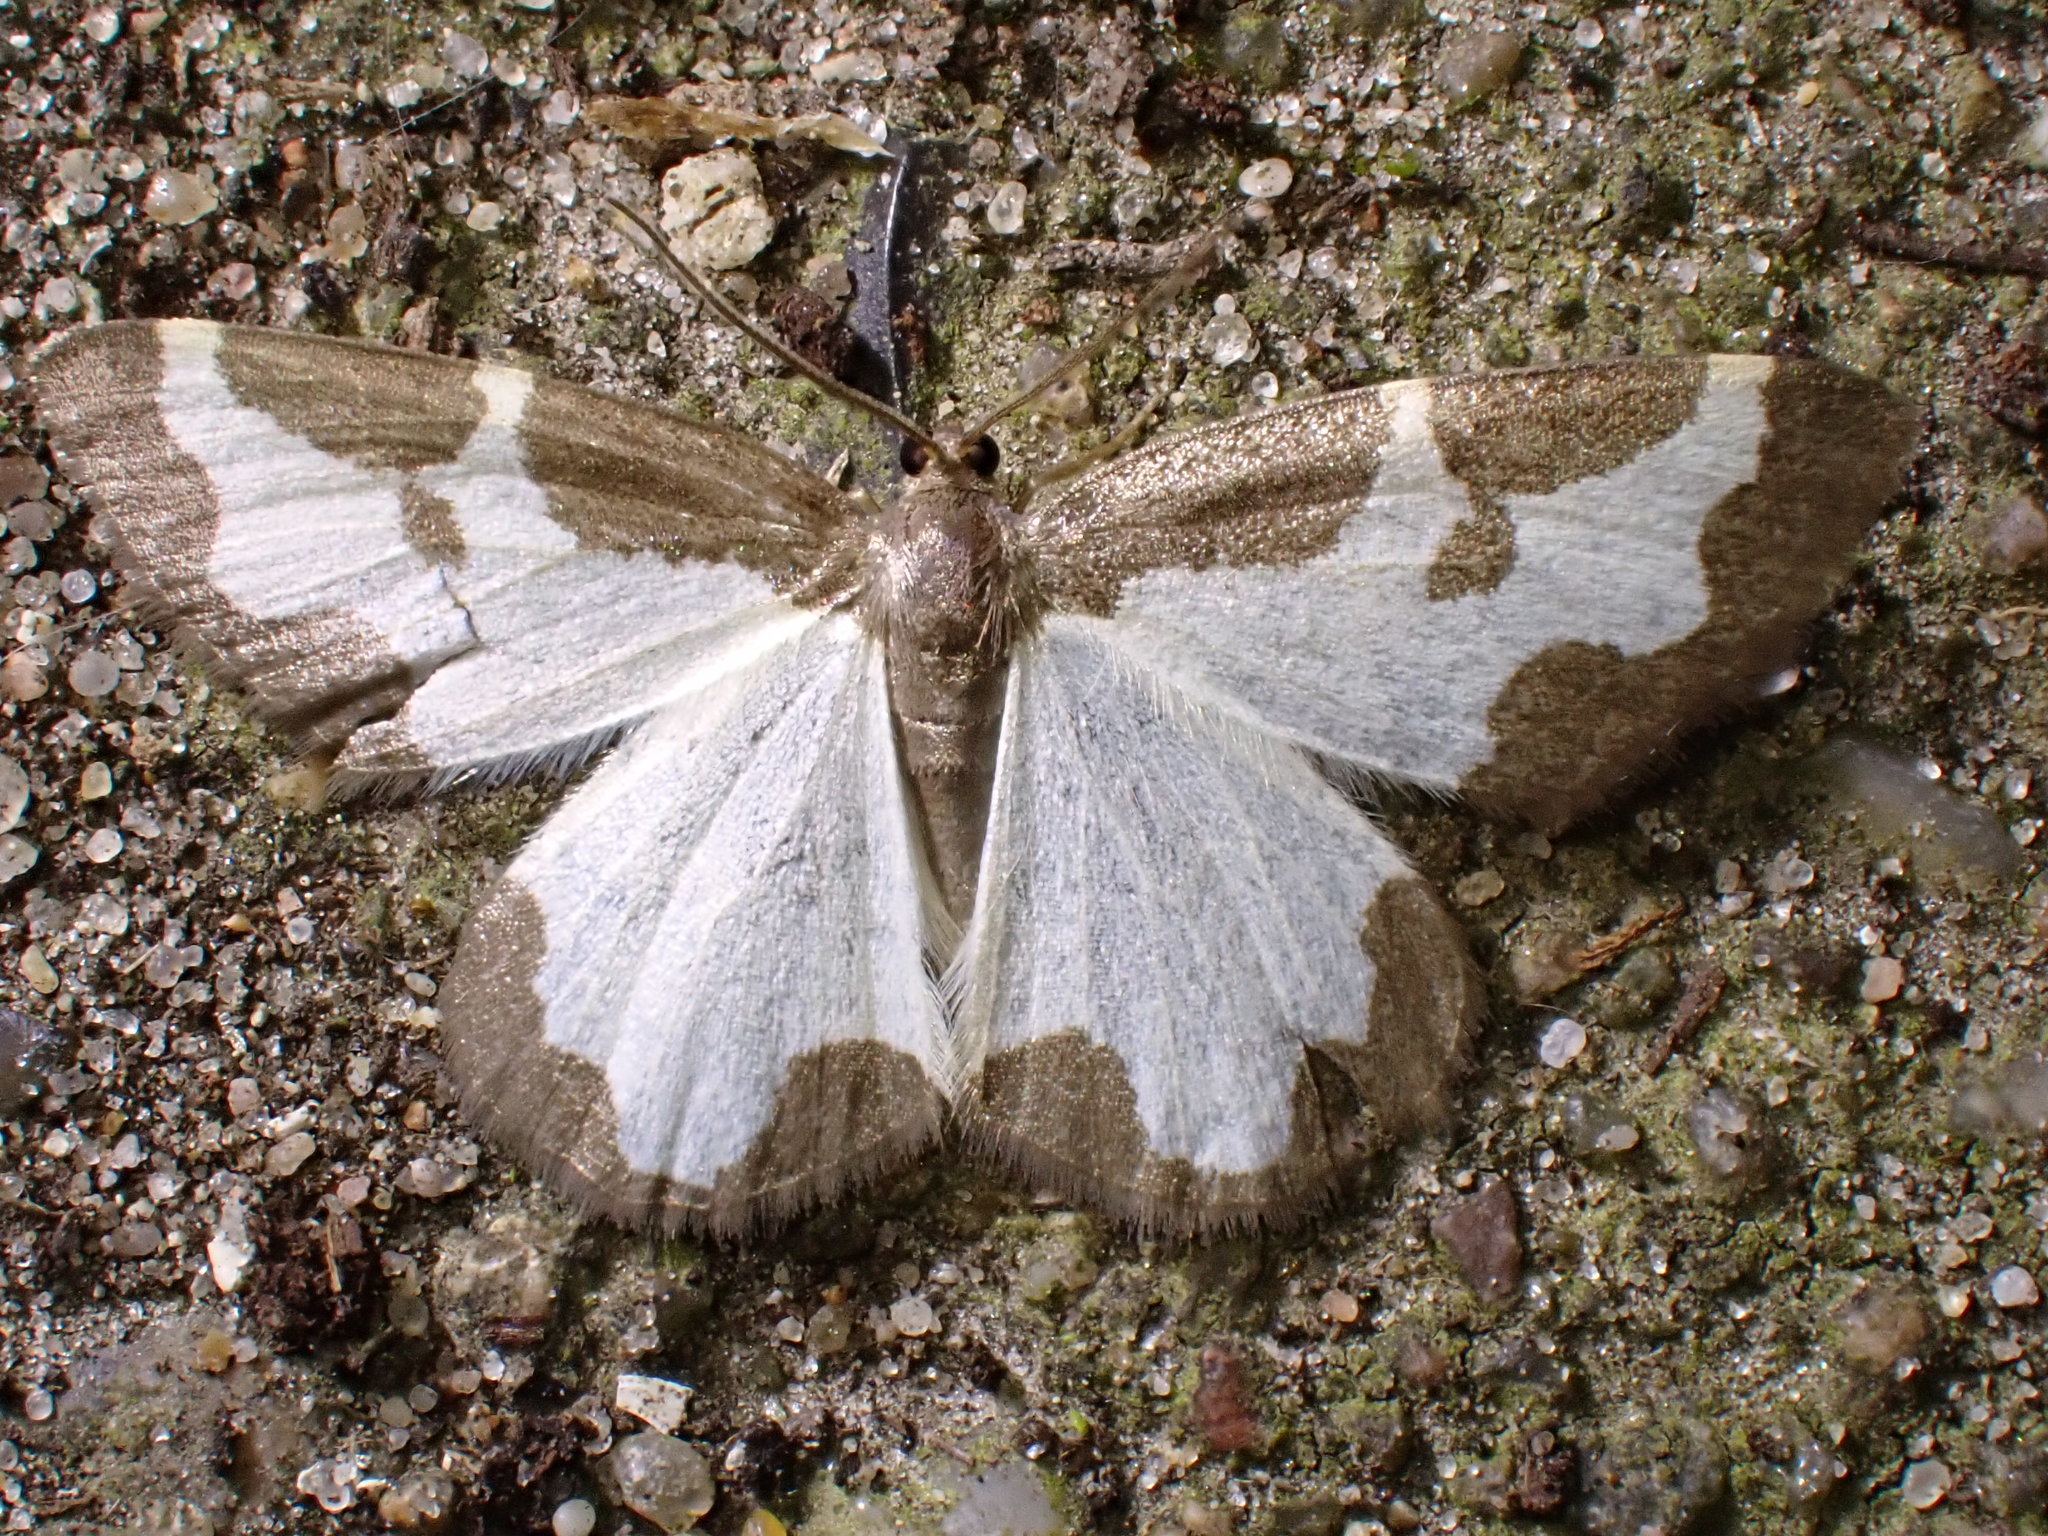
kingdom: Animalia
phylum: Arthropoda
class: Insecta
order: Lepidoptera
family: Geometridae
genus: Lomaspilis
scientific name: Lomaspilis marginata
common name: Clouded border
